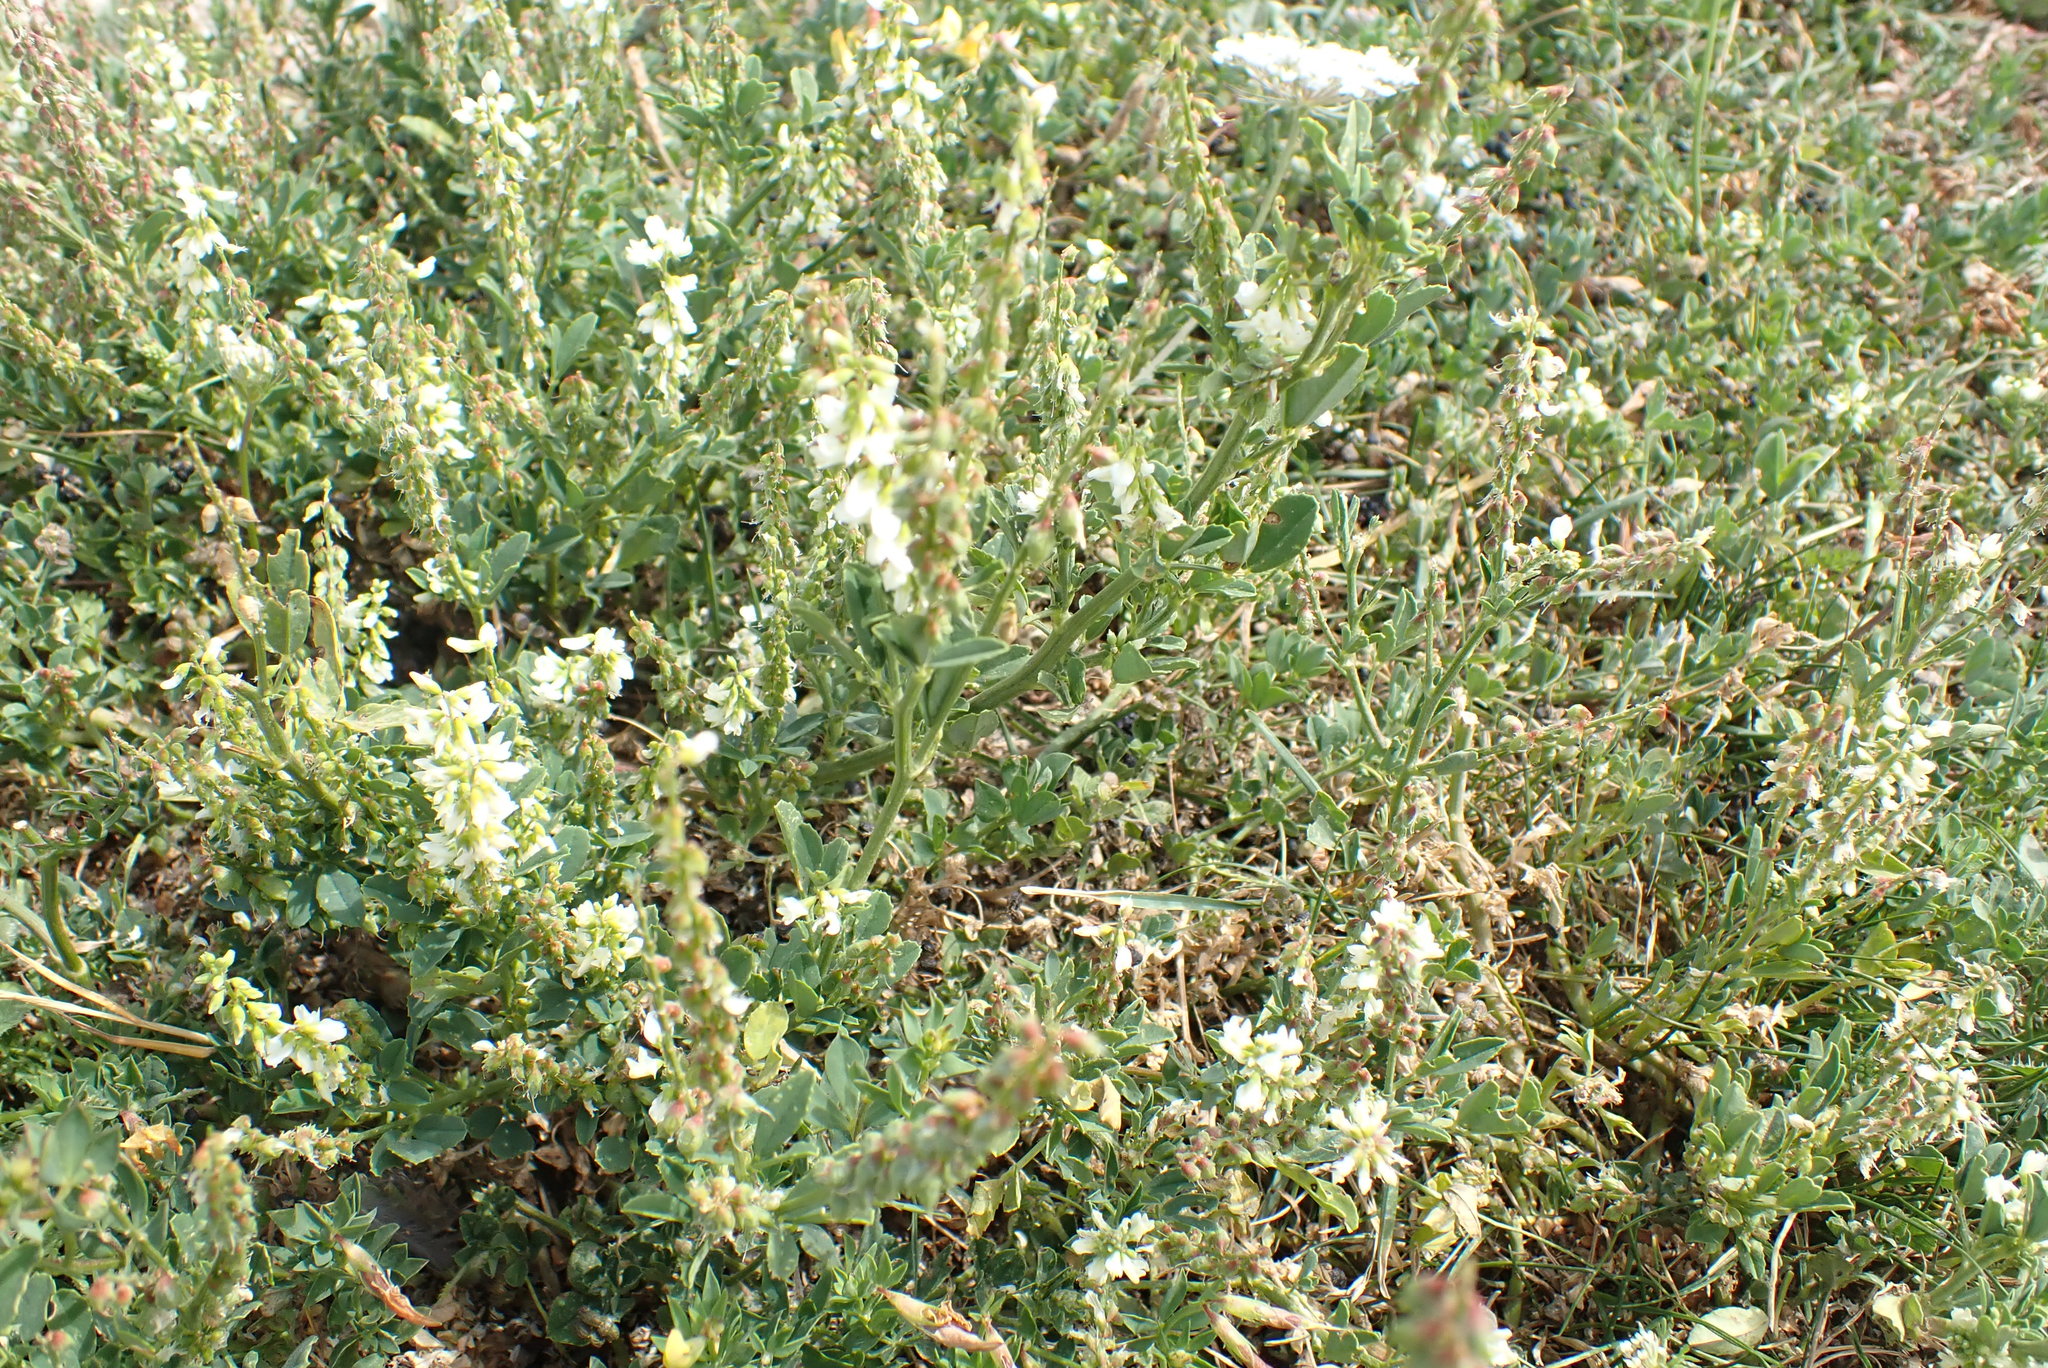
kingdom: Plantae
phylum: Tracheophyta
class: Magnoliopsida
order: Fabales
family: Fabaceae
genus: Melilotus
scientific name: Melilotus albus
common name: White melilot
